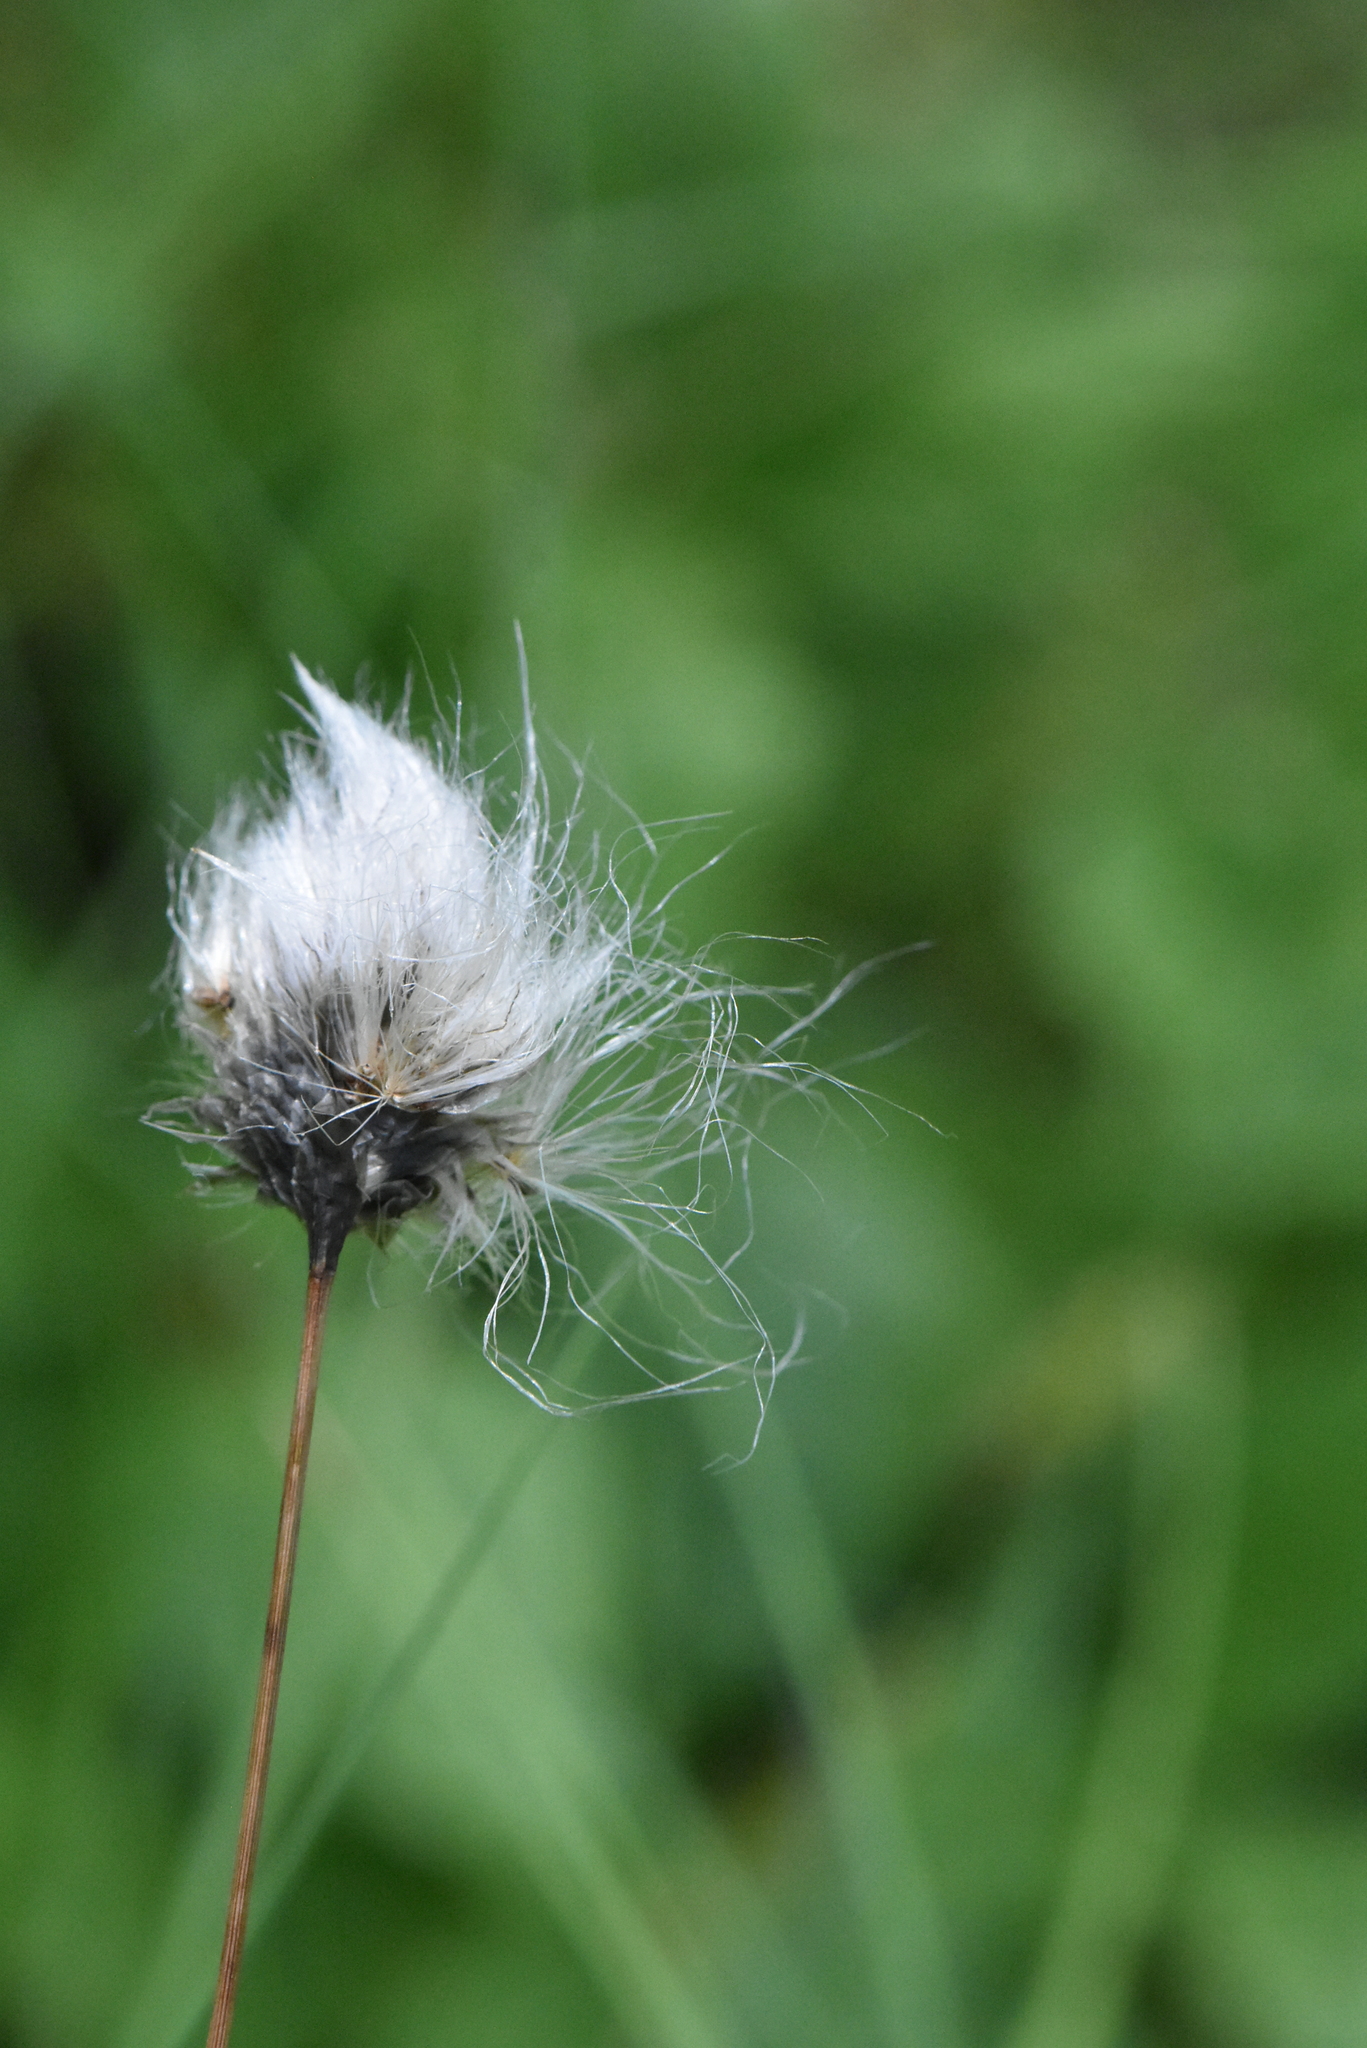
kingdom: Plantae
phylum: Tracheophyta
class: Liliopsida
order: Poales
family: Cyperaceae
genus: Eriophorum
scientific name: Eriophorum vaginatum
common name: Hare's-tail cottongrass
